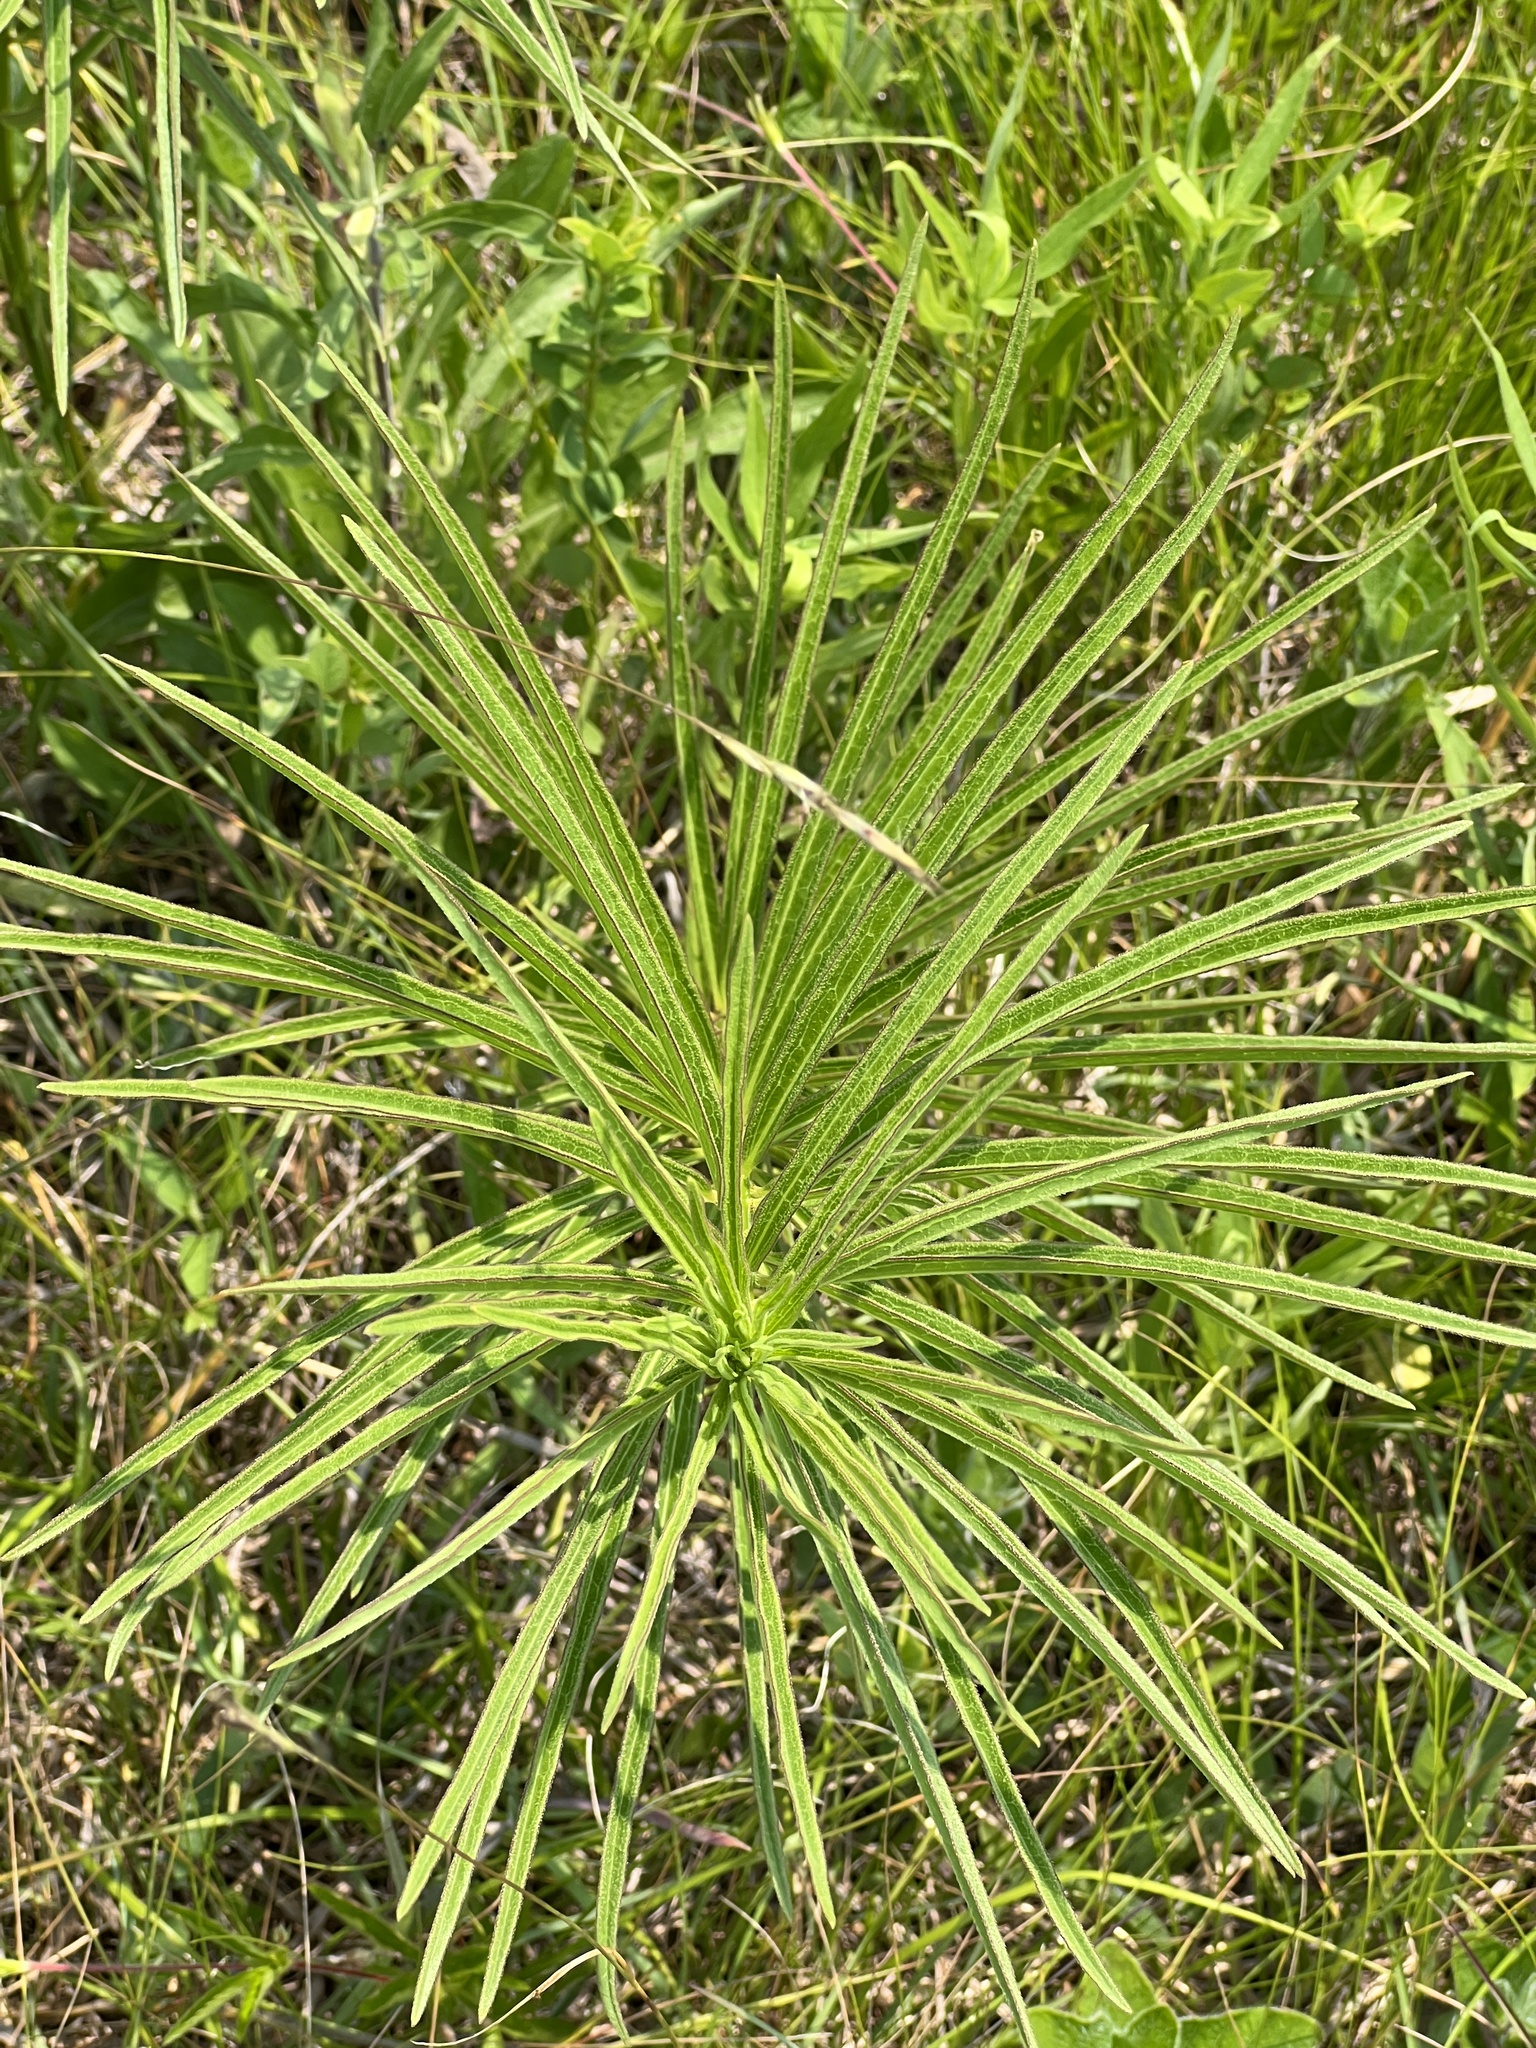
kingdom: Plantae
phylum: Tracheophyta
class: Magnoliopsida
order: Gentianales
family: Apocynaceae
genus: Asclepias
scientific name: Asclepias hirtella
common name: Prairie milkweed
